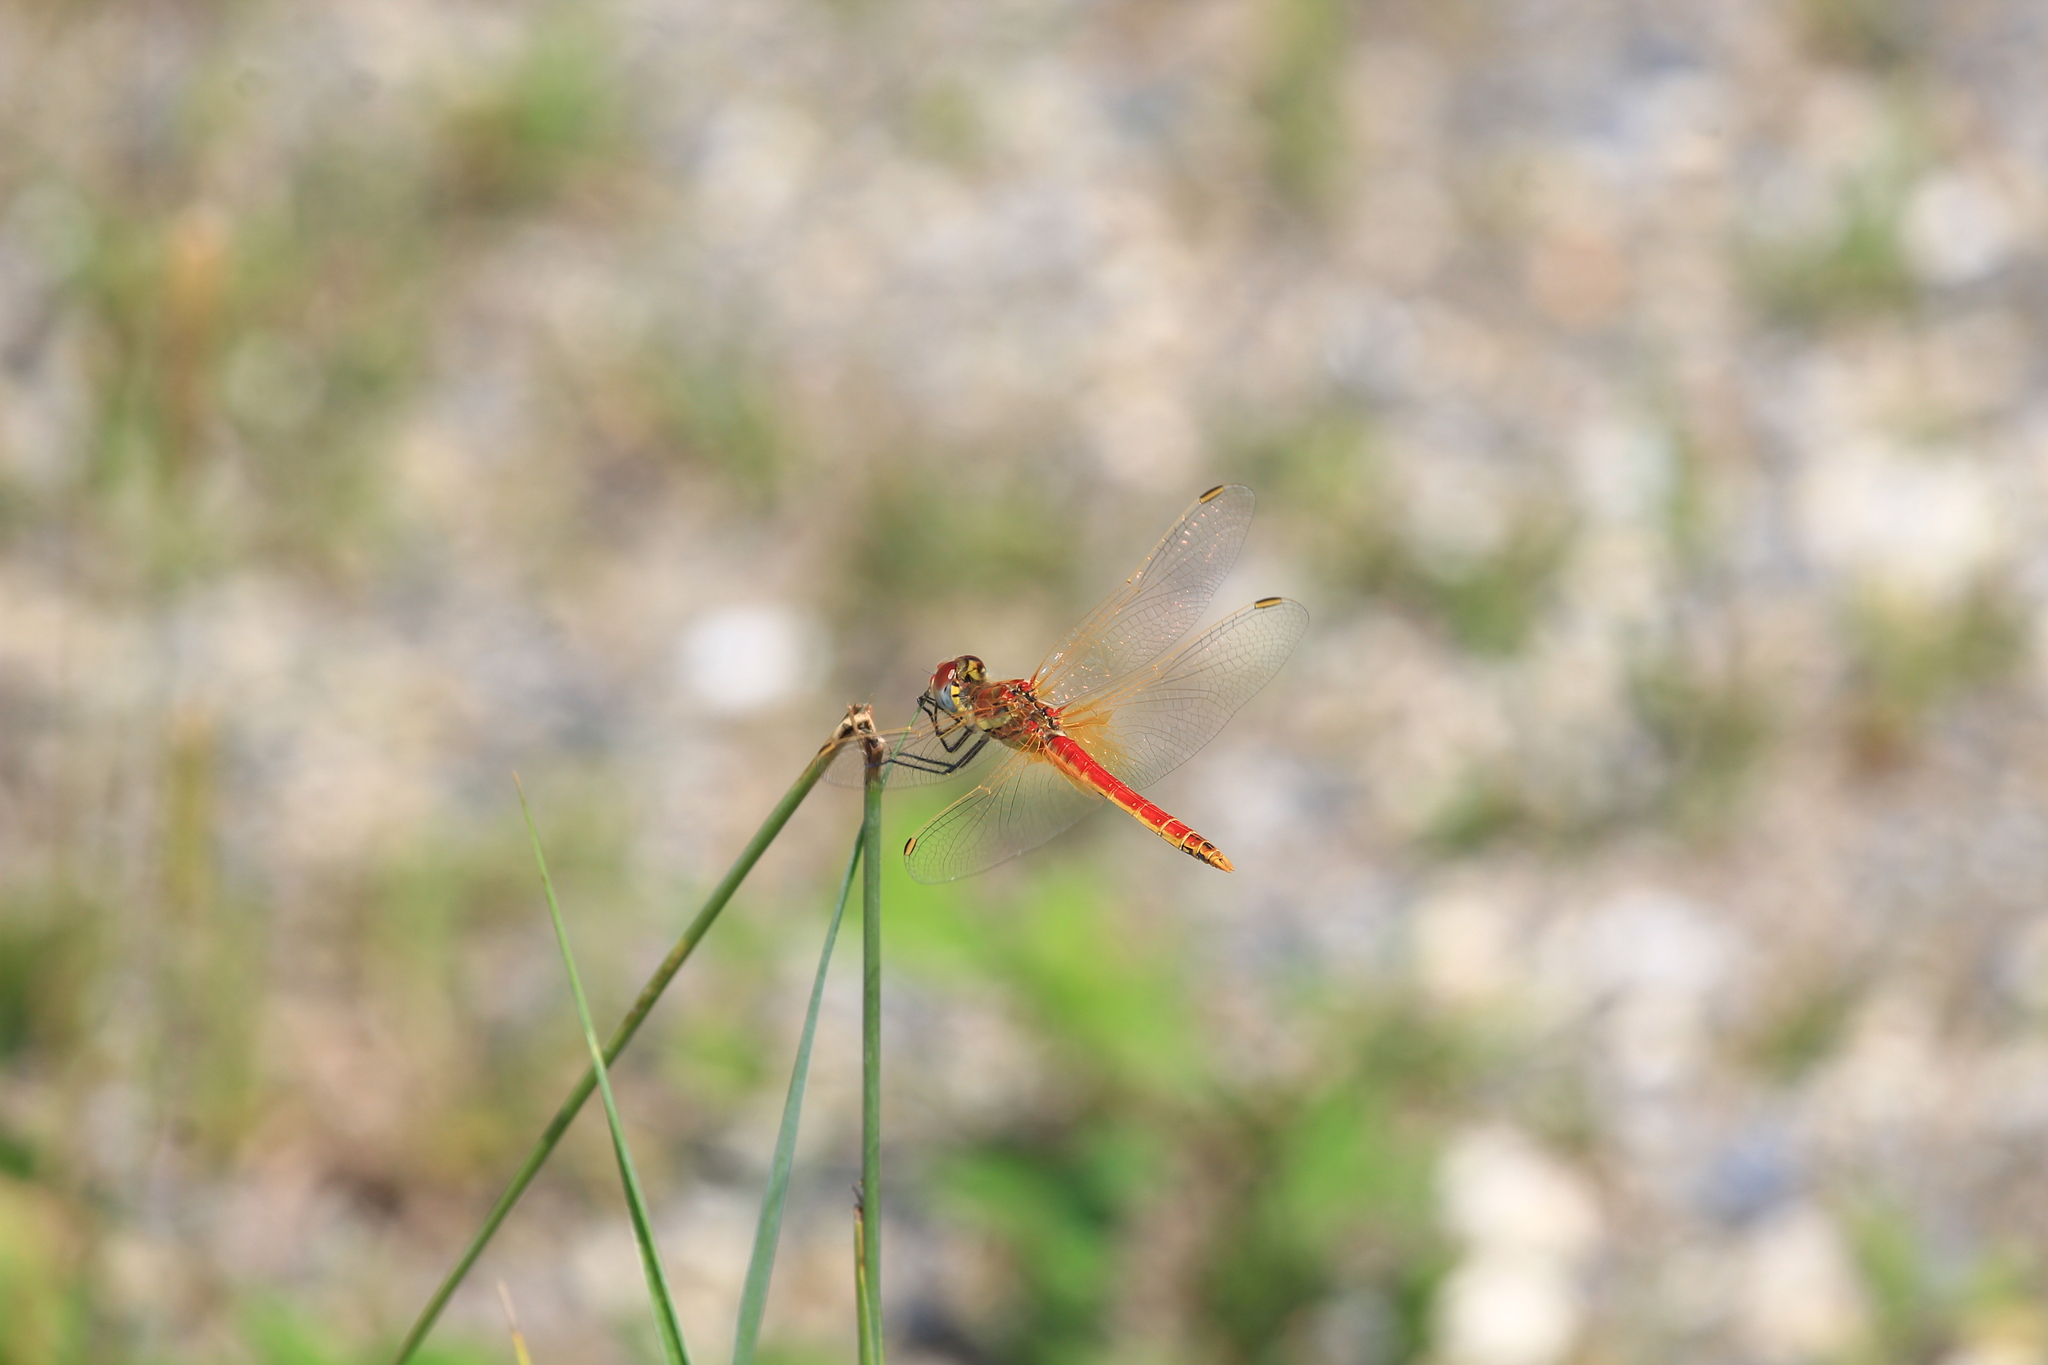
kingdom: Animalia
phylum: Arthropoda
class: Insecta
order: Odonata
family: Libellulidae
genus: Sympetrum
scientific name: Sympetrum fonscolombii
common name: Red-veined darter
